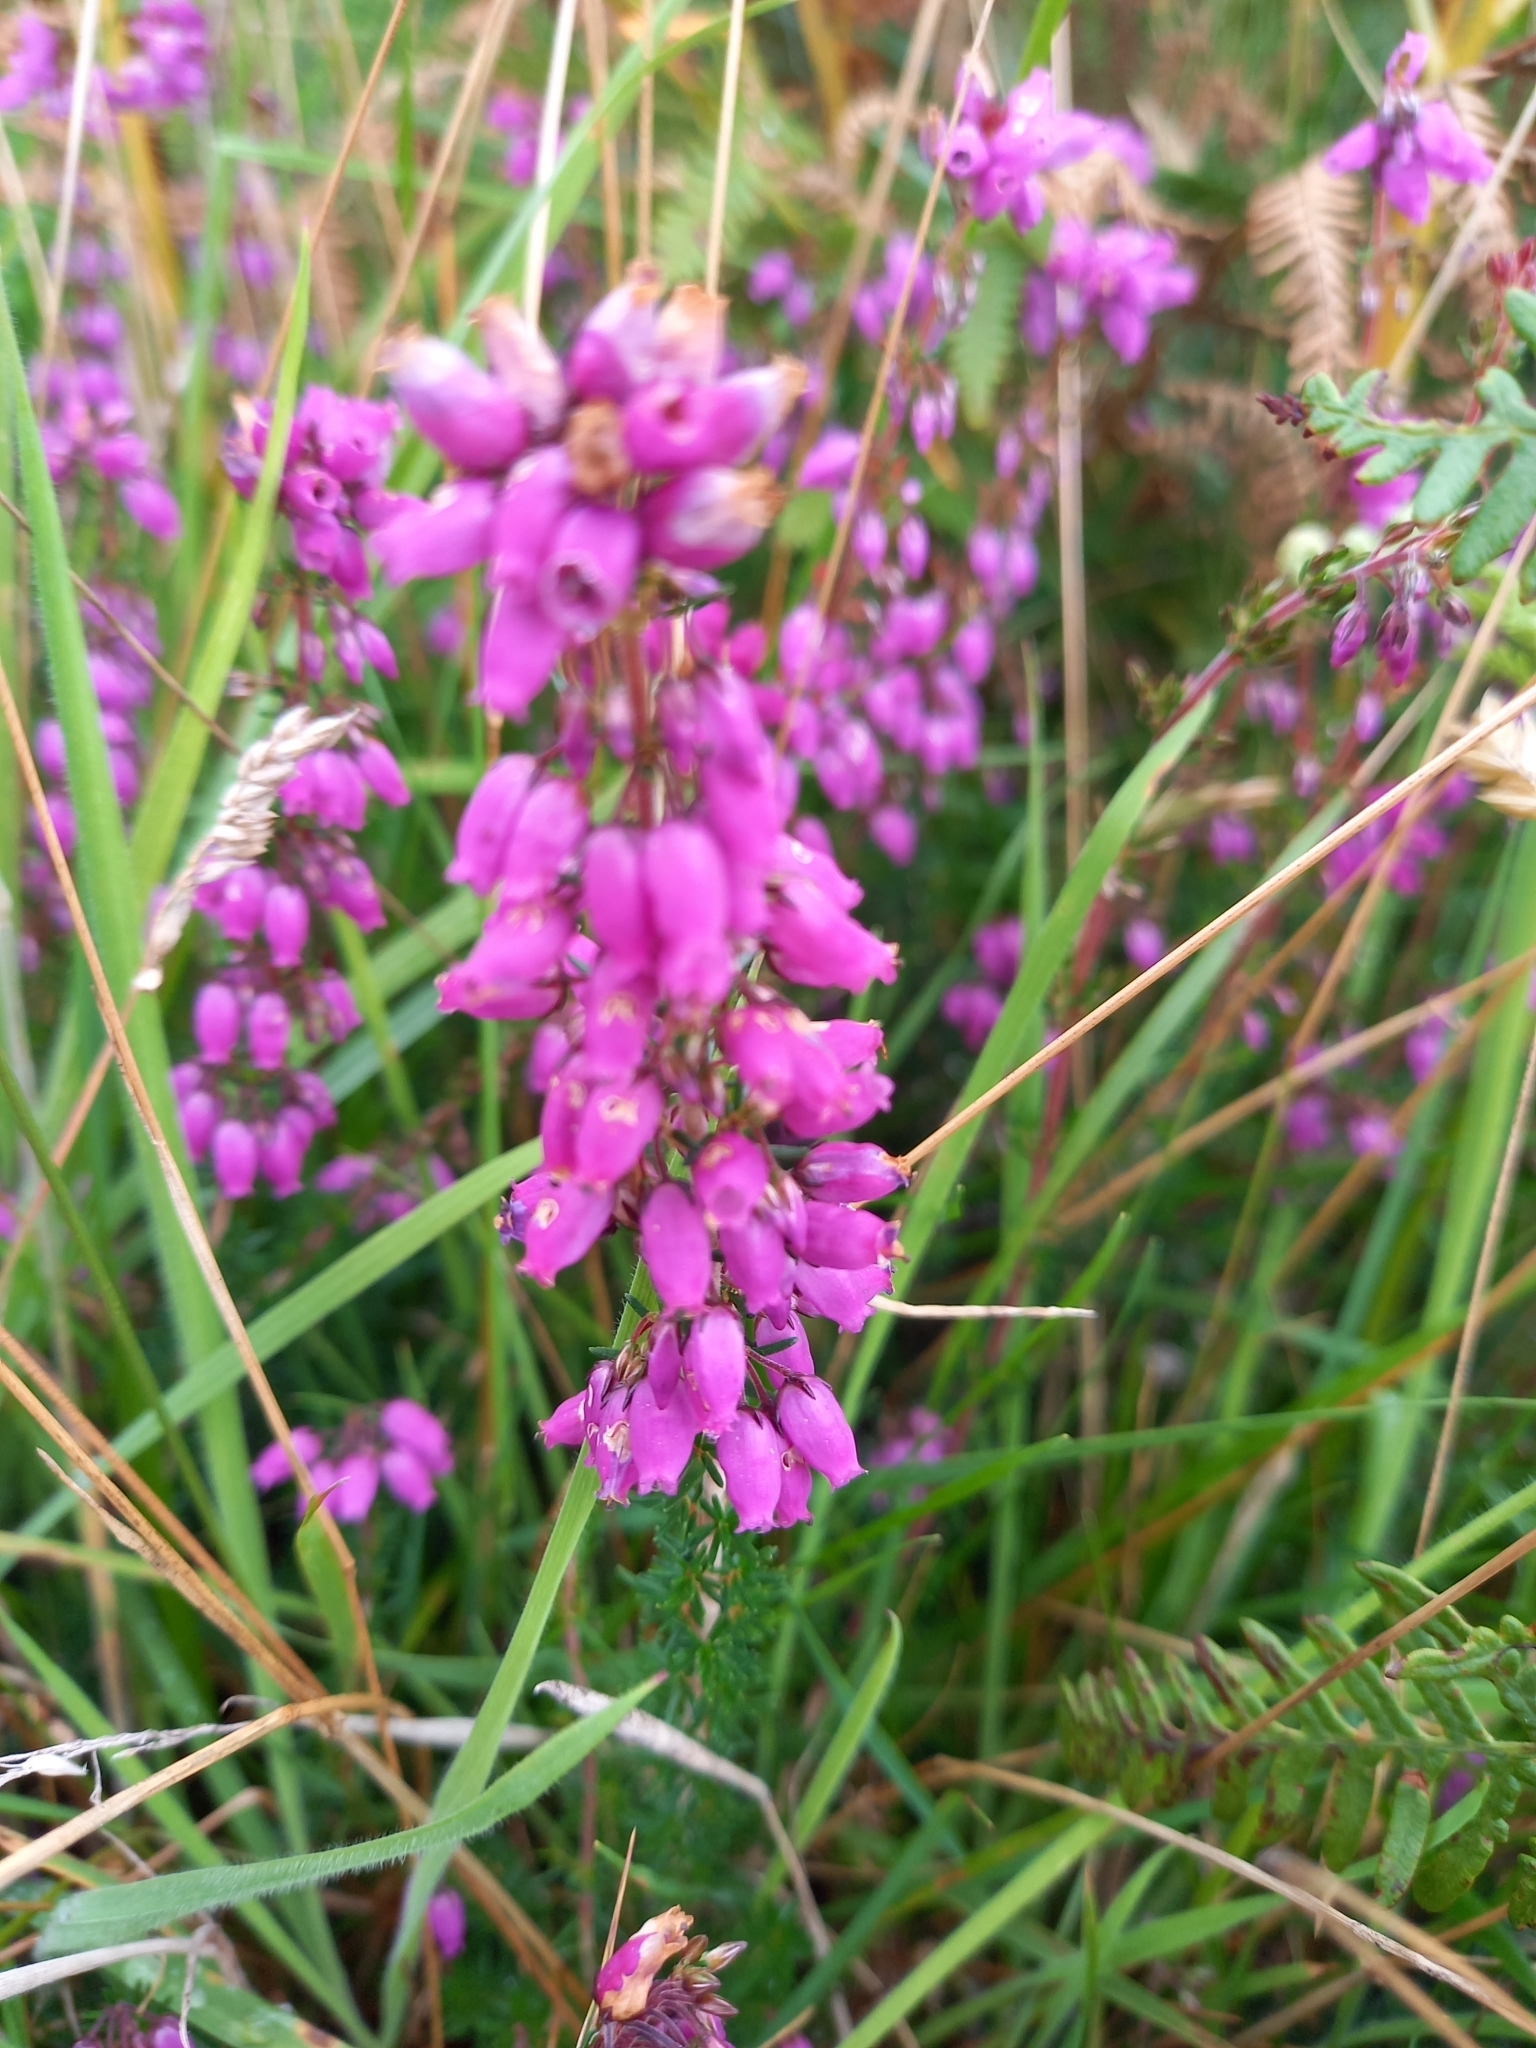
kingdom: Plantae
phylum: Tracheophyta
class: Magnoliopsida
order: Ericales
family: Ericaceae
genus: Erica
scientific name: Erica cinerea
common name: Bell heather
